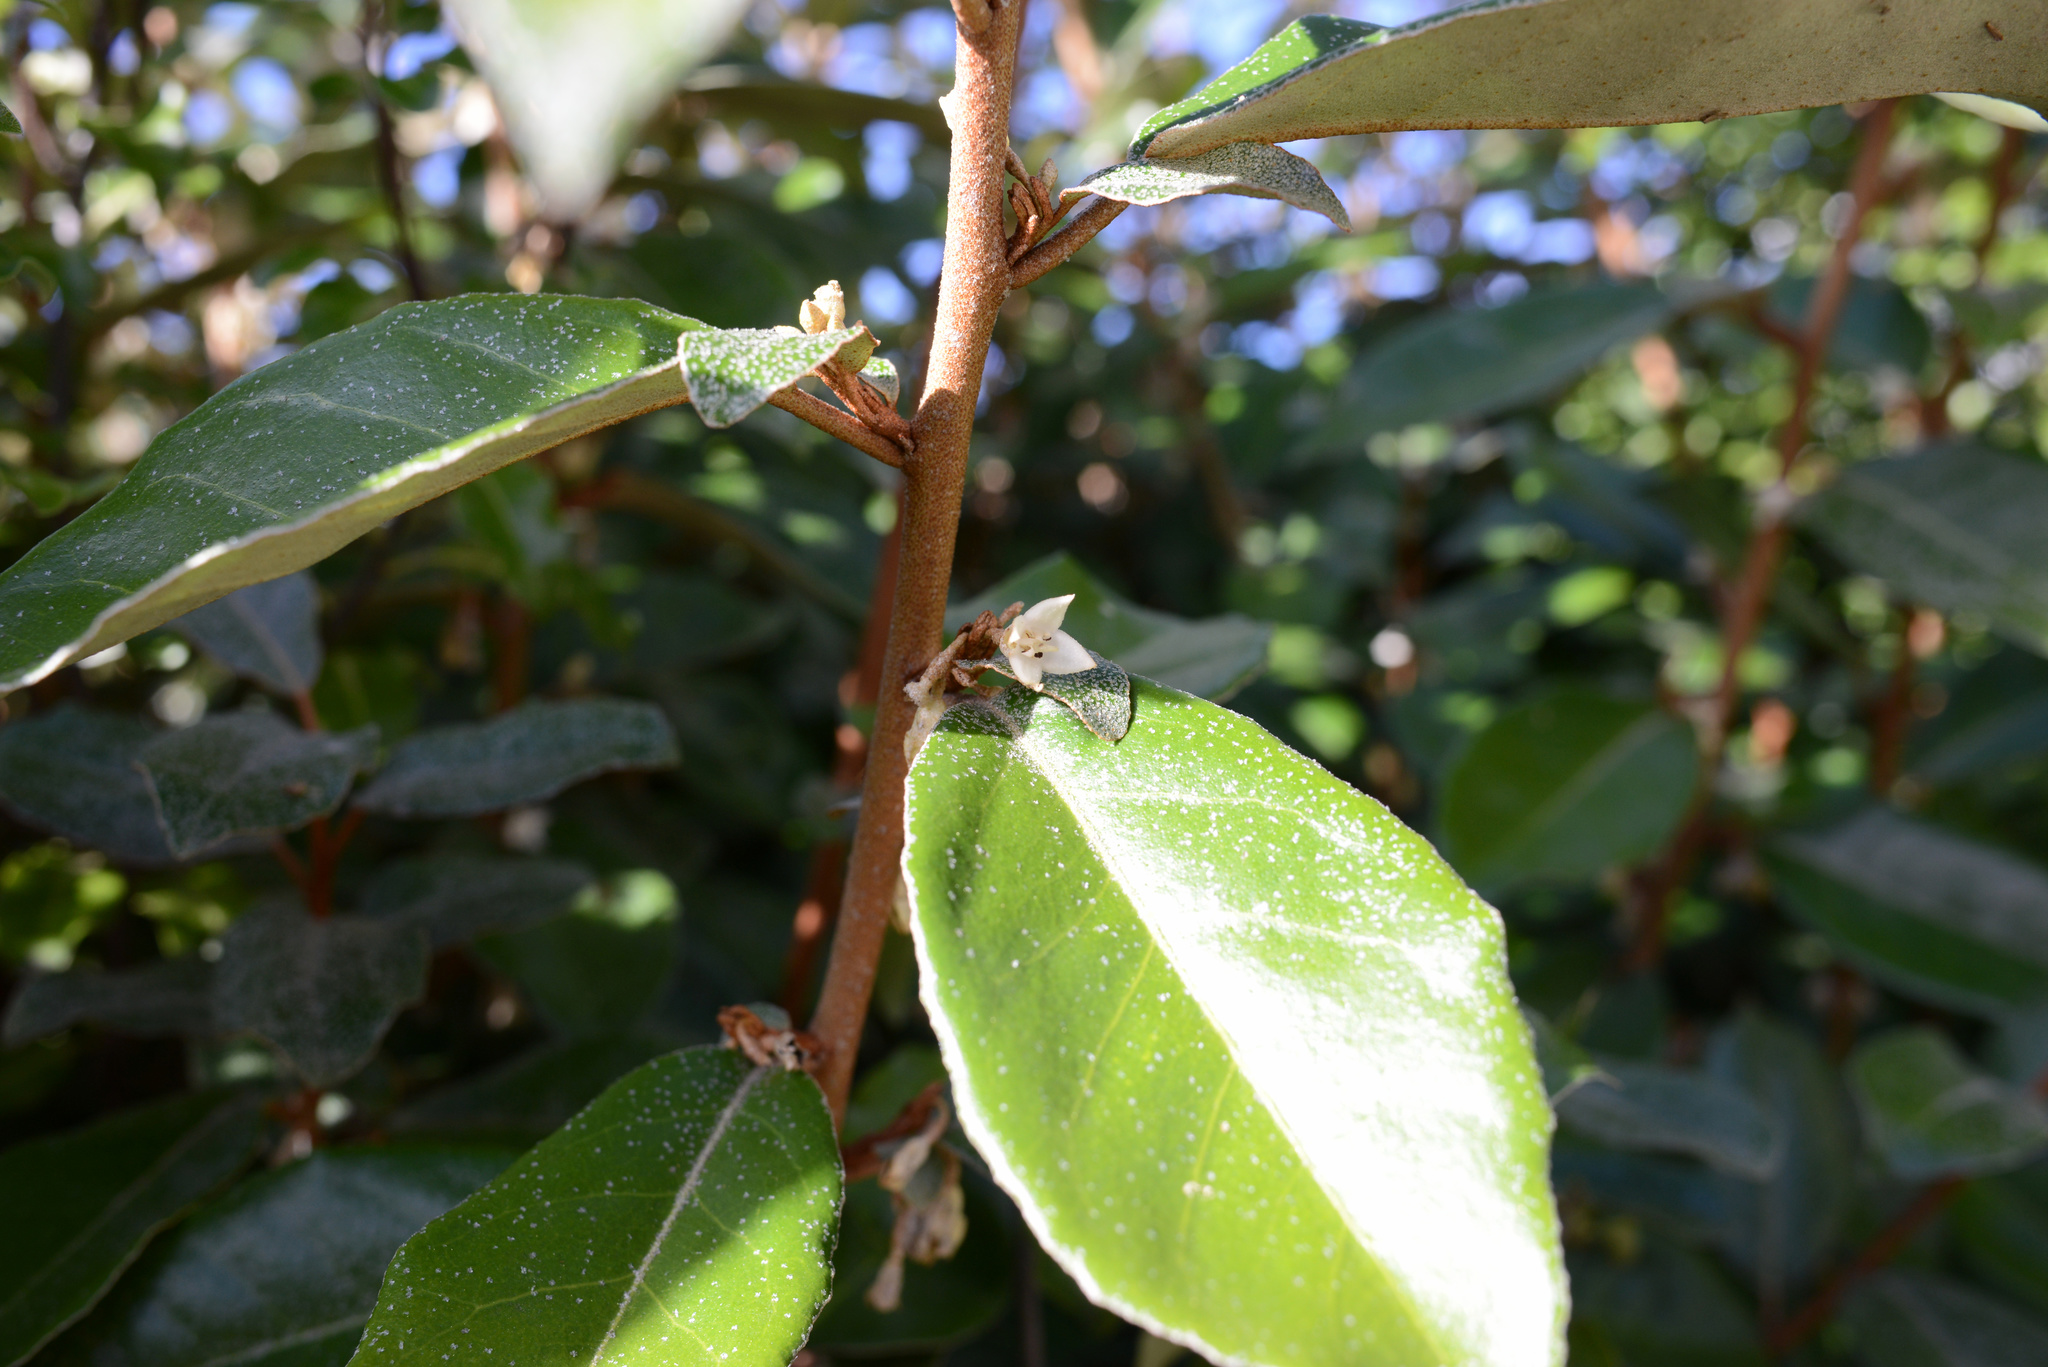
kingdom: Plantae
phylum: Tracheophyta
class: Magnoliopsida
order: Rosales
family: Elaeagnaceae
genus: Elaeagnus
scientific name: Elaeagnus reflexa
